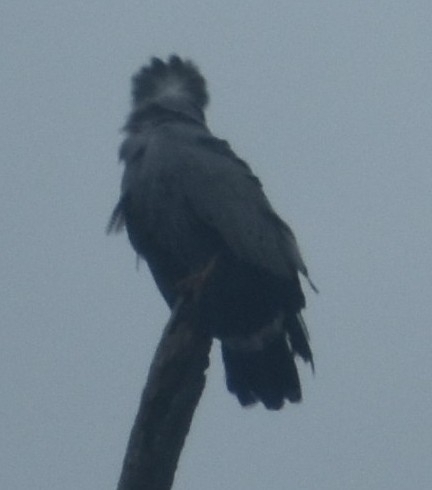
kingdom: Animalia
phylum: Chordata
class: Aves
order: Accipitriformes
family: Accipitridae
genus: Polyboroides
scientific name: Polyboroides typus
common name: African harrier-hawk
